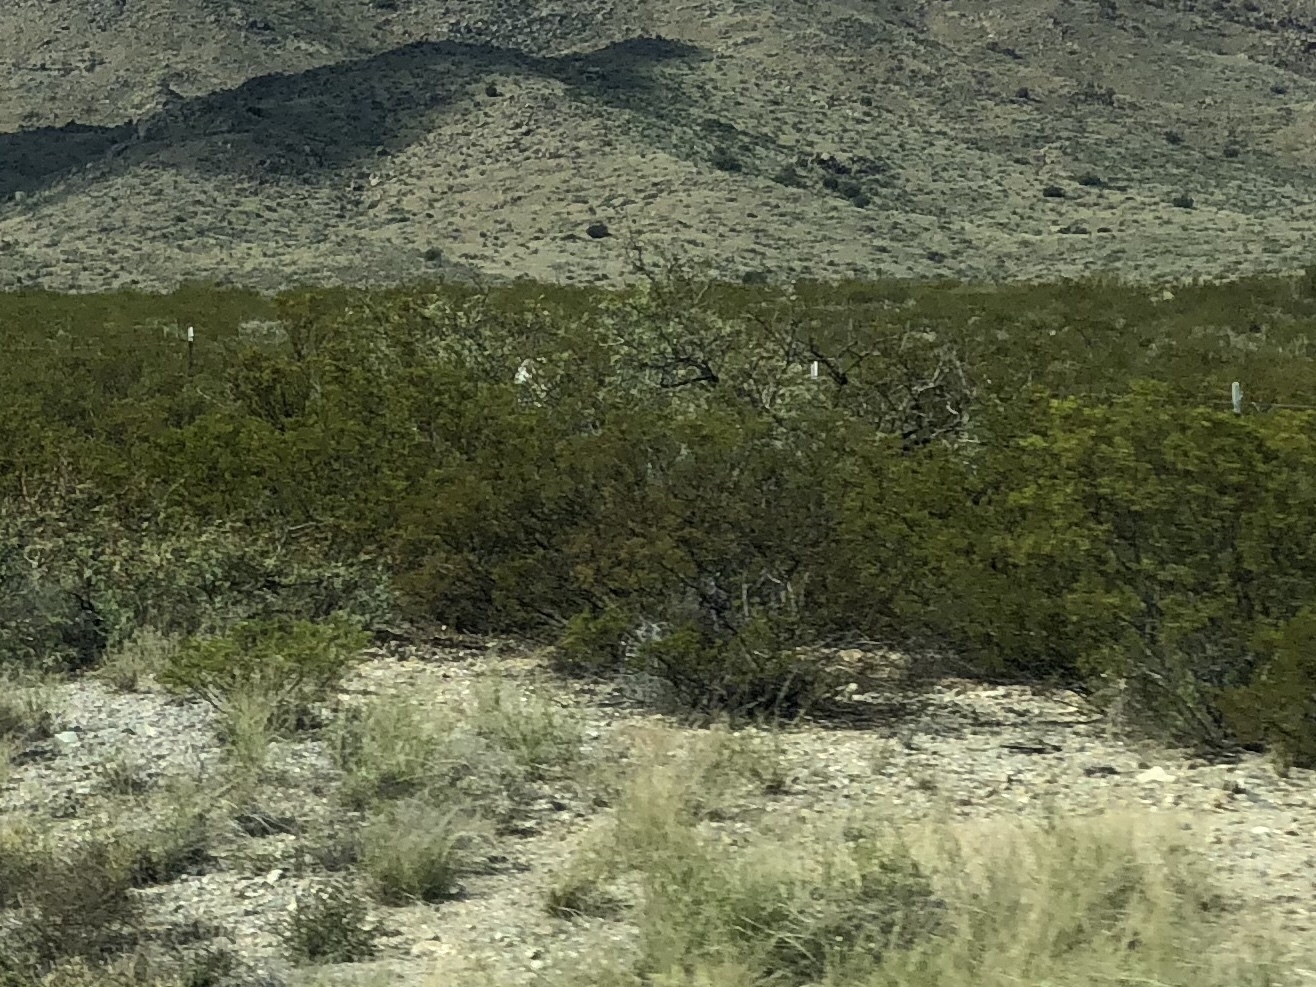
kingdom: Plantae
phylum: Tracheophyta
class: Magnoliopsida
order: Zygophyllales
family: Zygophyllaceae
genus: Larrea
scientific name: Larrea tridentata
